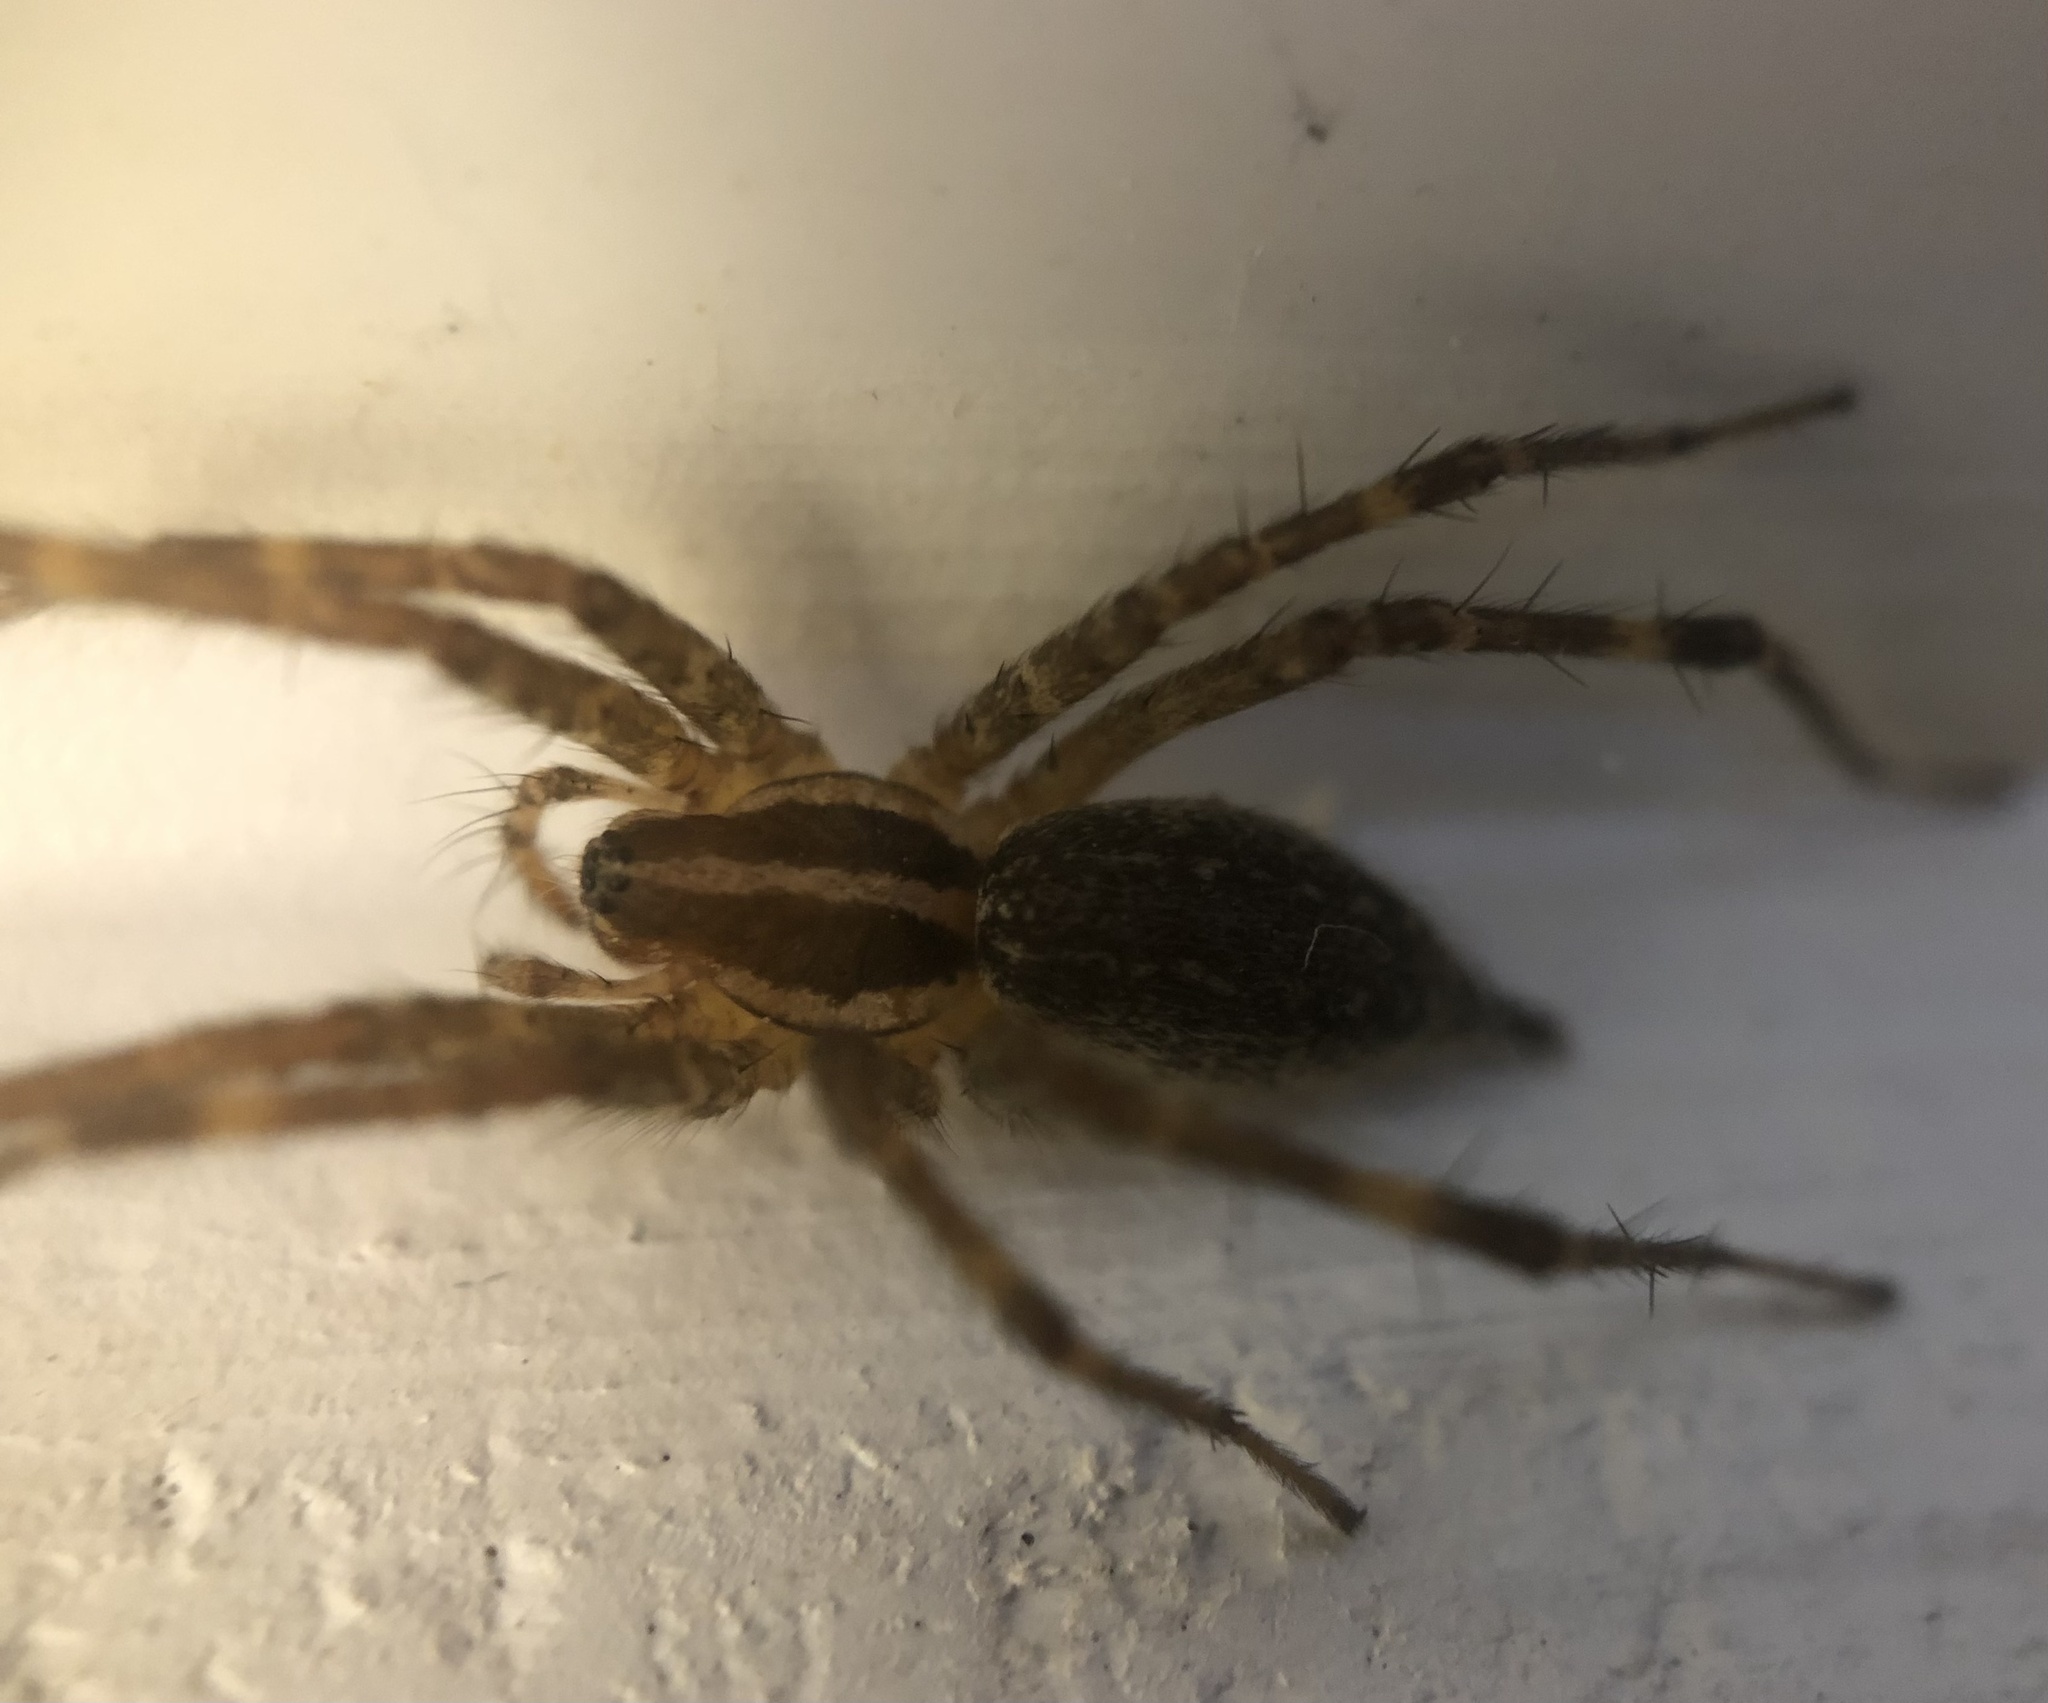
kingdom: Animalia
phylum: Arthropoda
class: Arachnida
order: Araneae
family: Agelenidae
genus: Agelenopsis
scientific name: Agelenopsis
